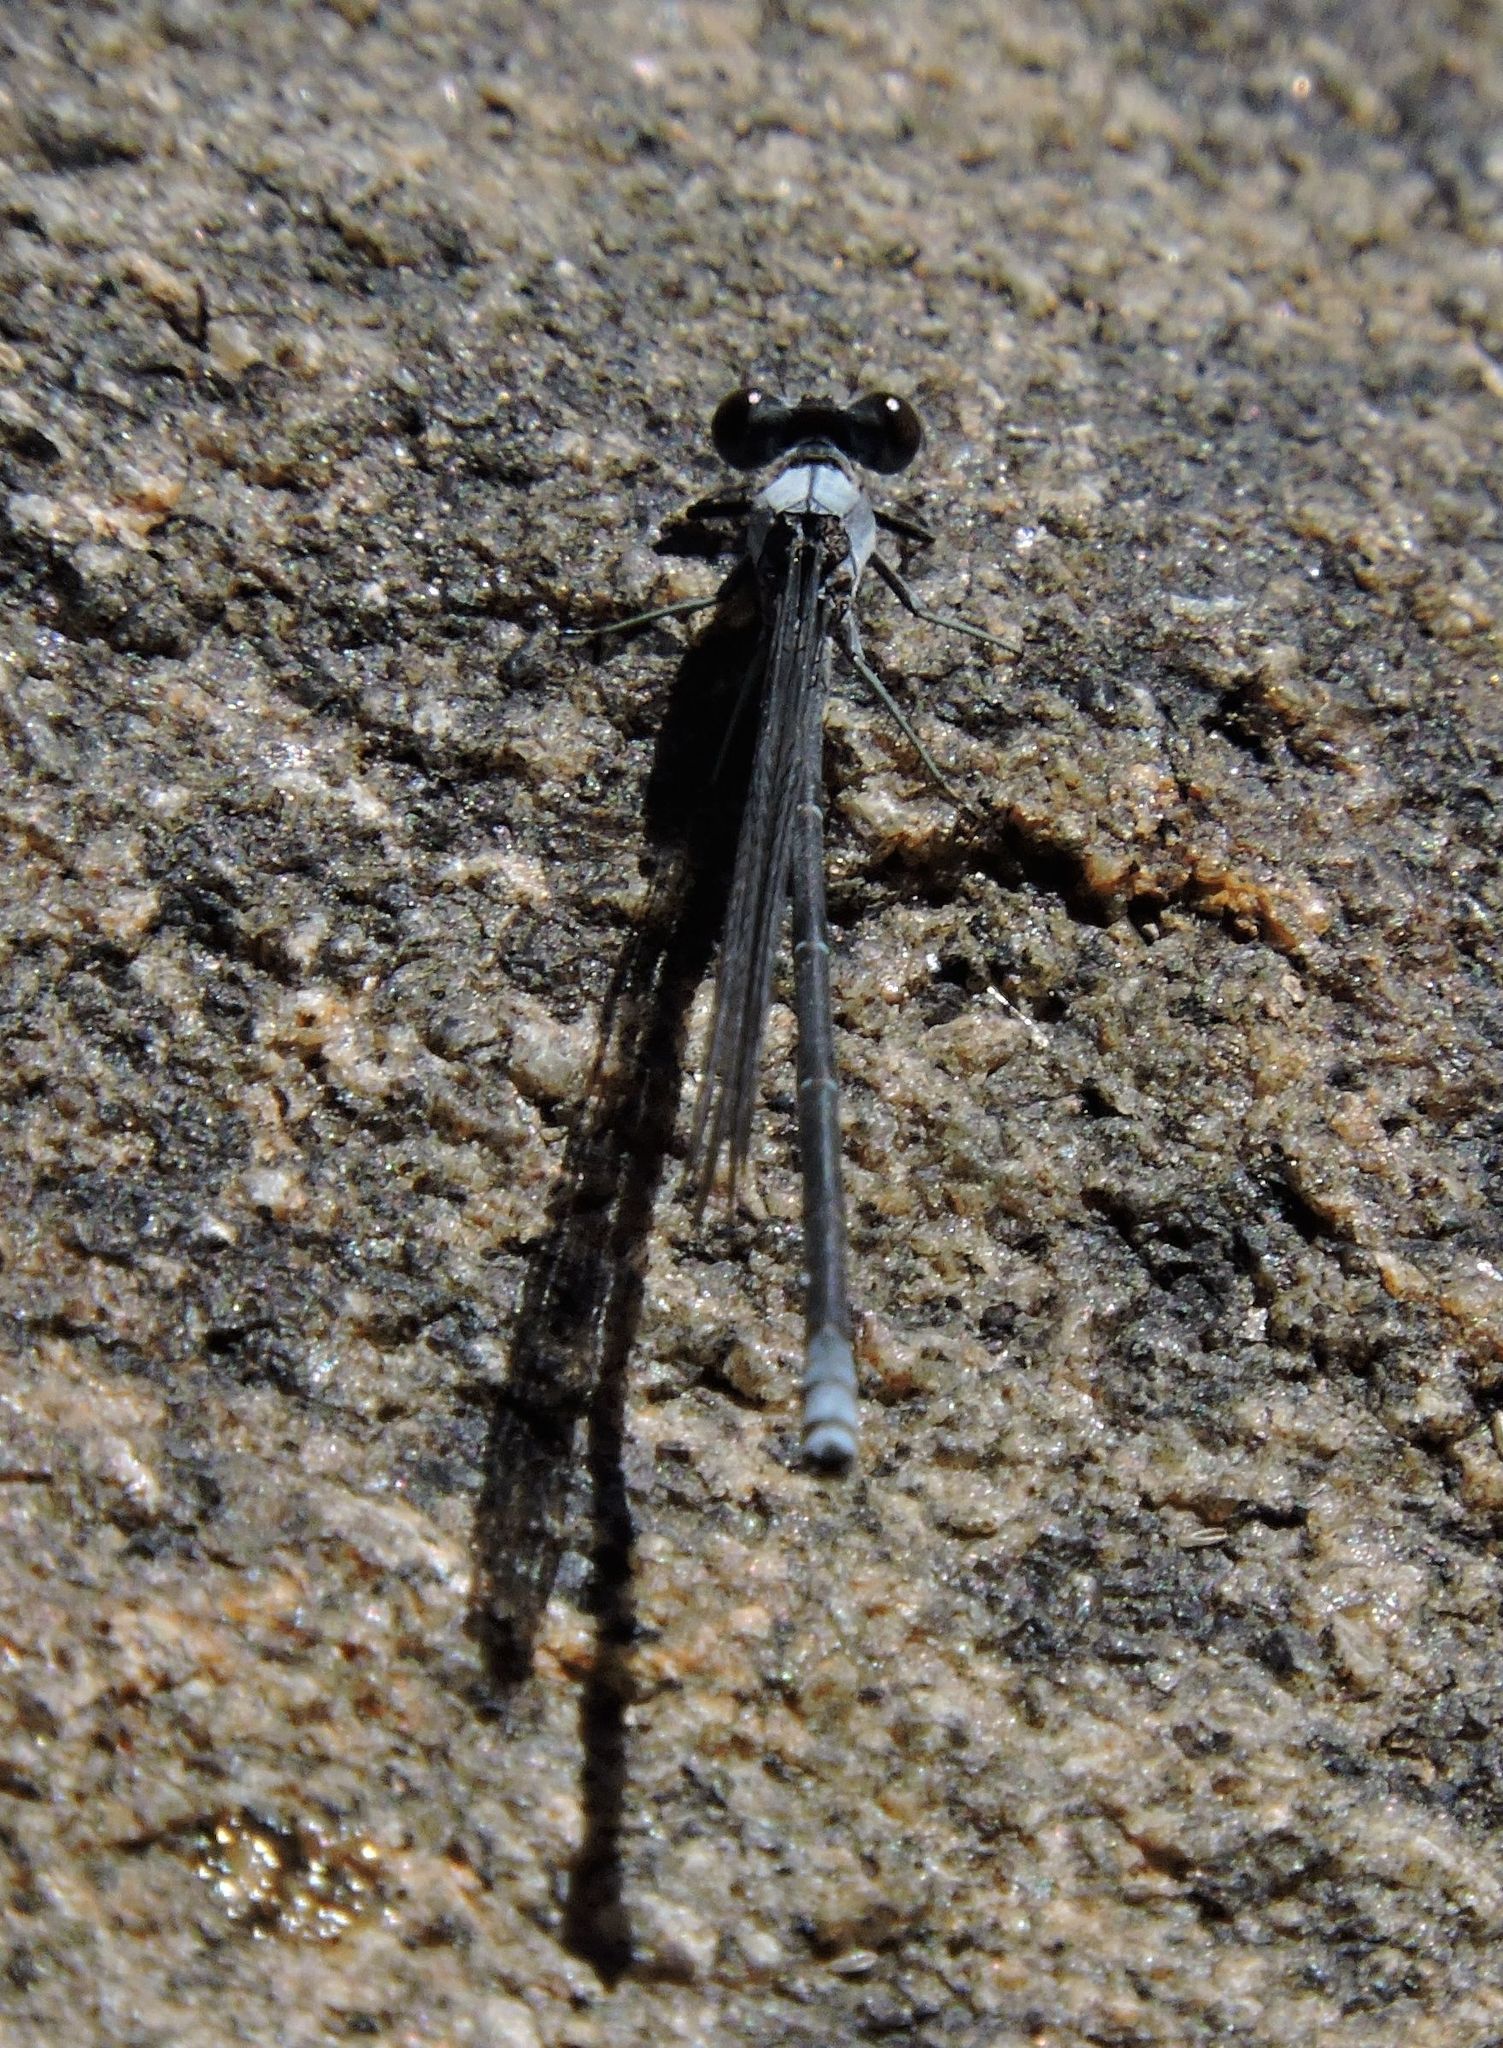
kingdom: Animalia
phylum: Arthropoda
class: Insecta
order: Odonata
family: Coenagrionidae
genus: Argia
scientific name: Argia moesta
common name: Powdered dancer
